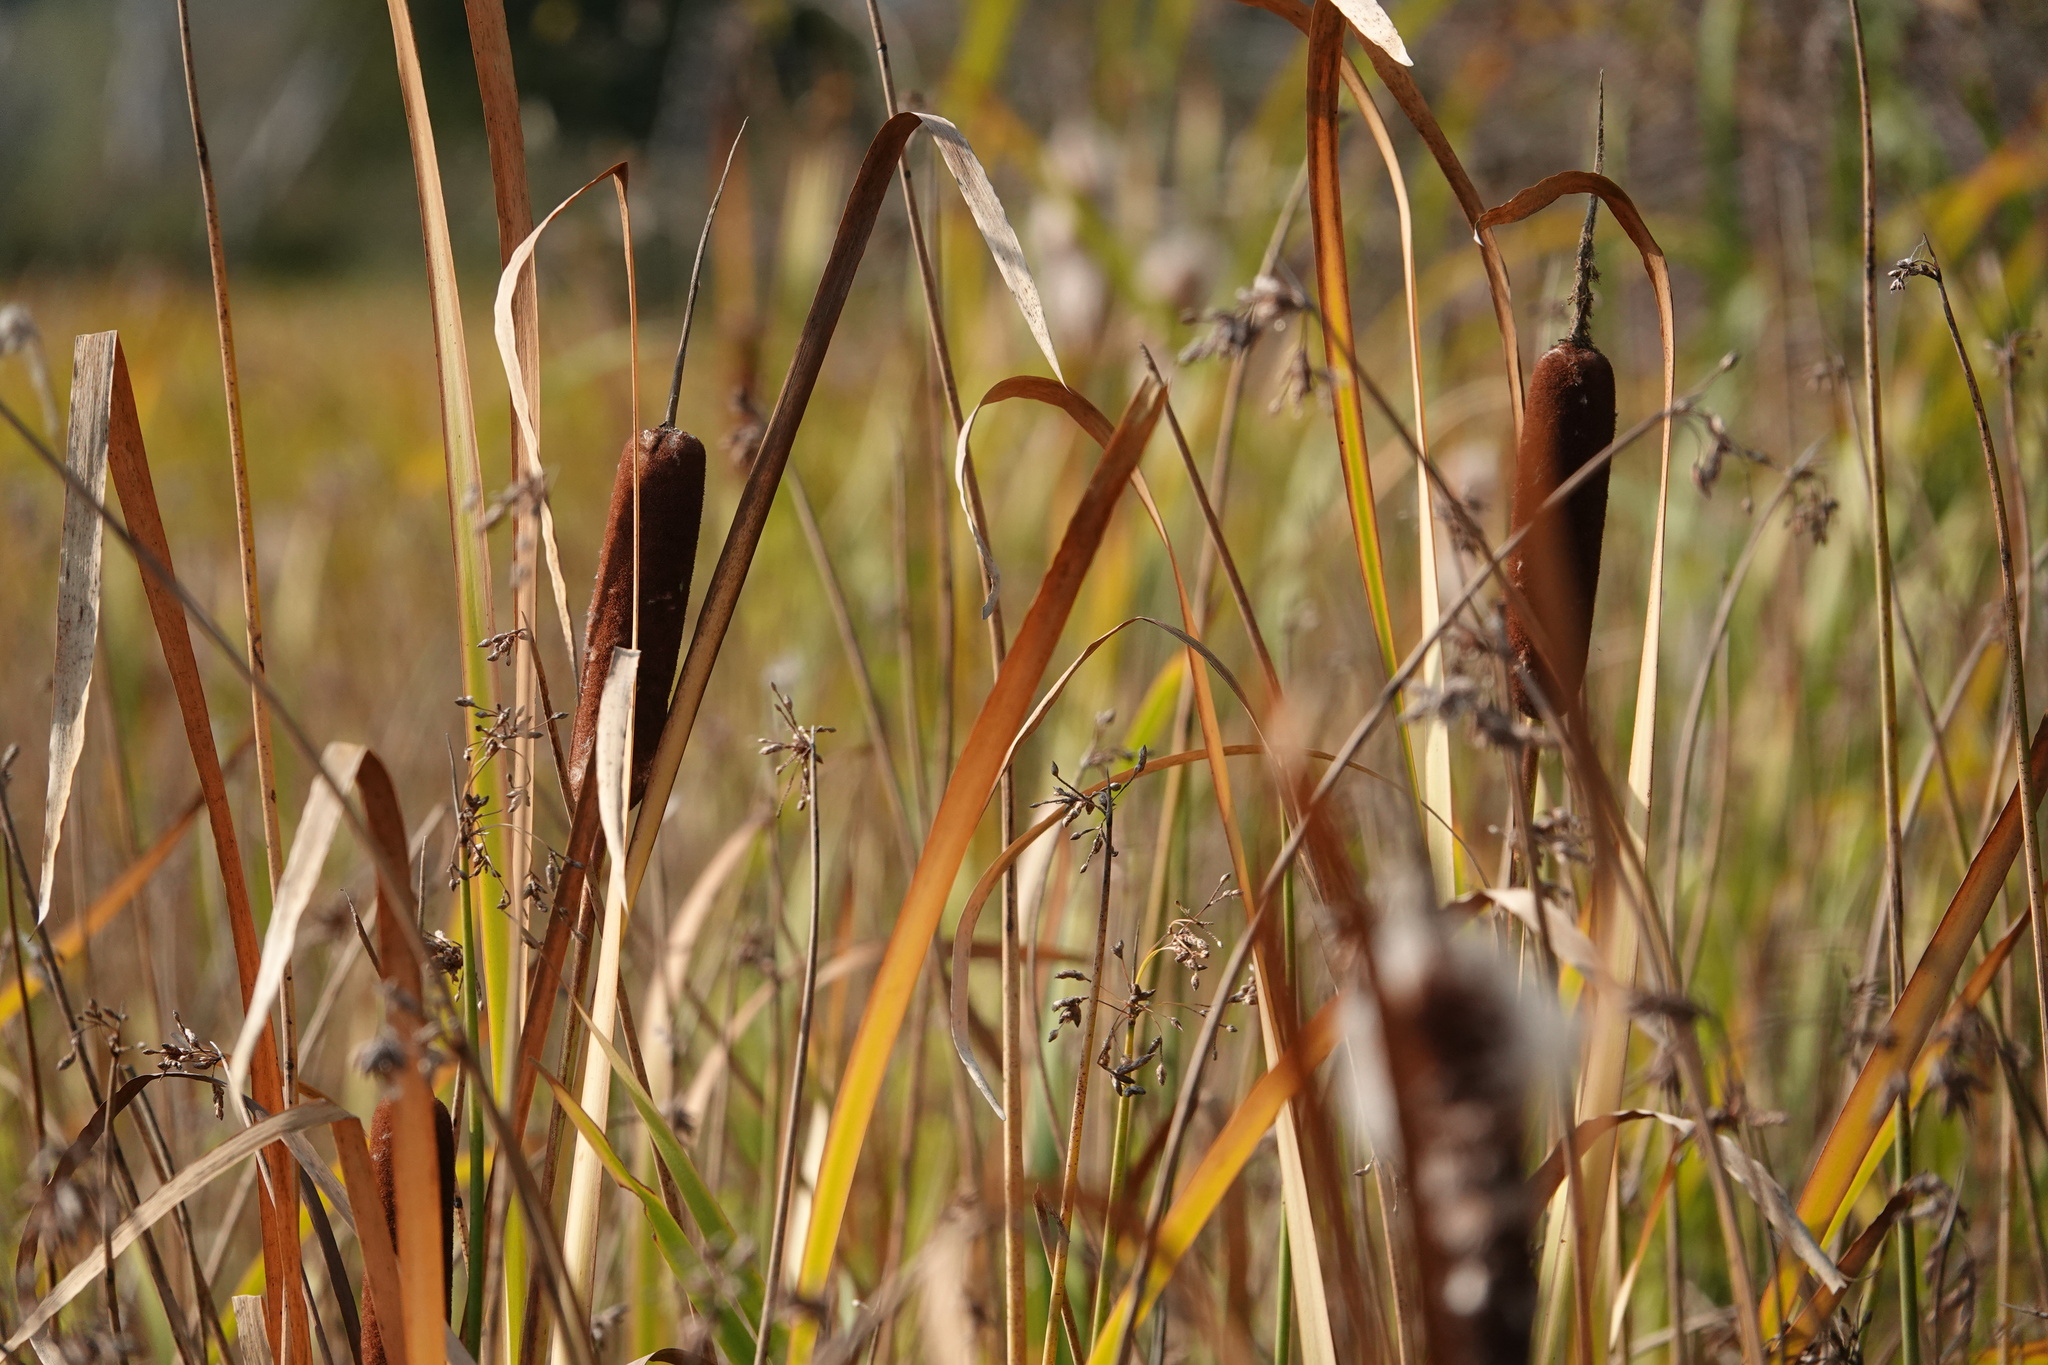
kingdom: Plantae
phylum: Tracheophyta
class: Liliopsida
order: Poales
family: Typhaceae
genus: Typha
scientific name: Typha latifolia
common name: Broadleaf cattail
